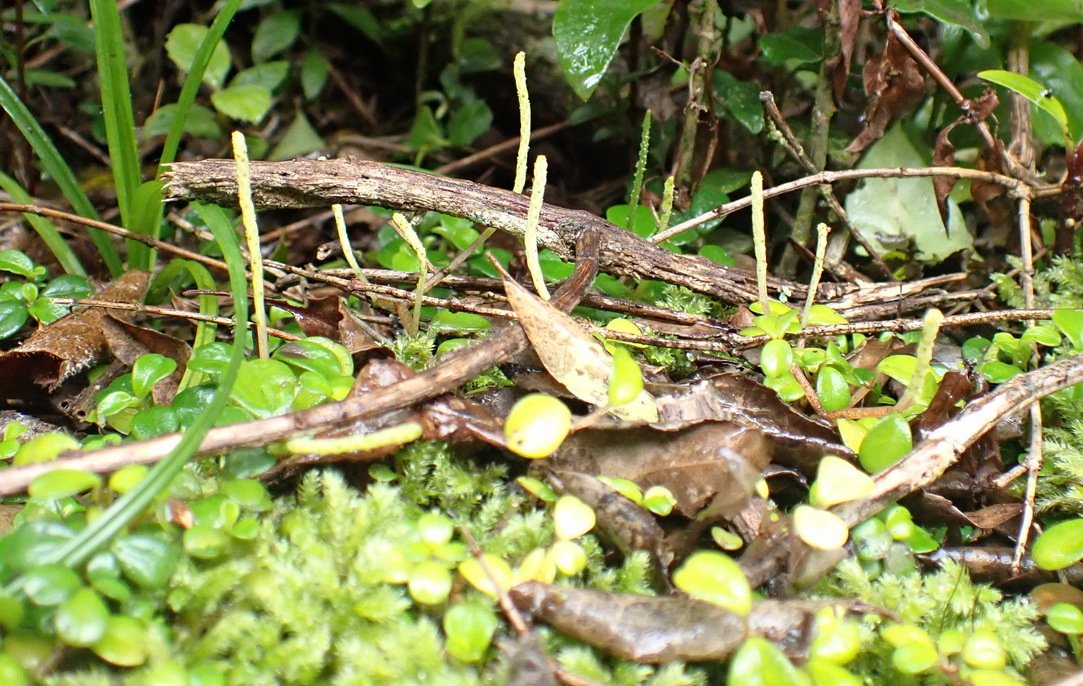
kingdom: Plantae
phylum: Tracheophyta
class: Magnoliopsida
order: Piperales
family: Piperaceae
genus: Peperomia
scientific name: Peperomia retusa
